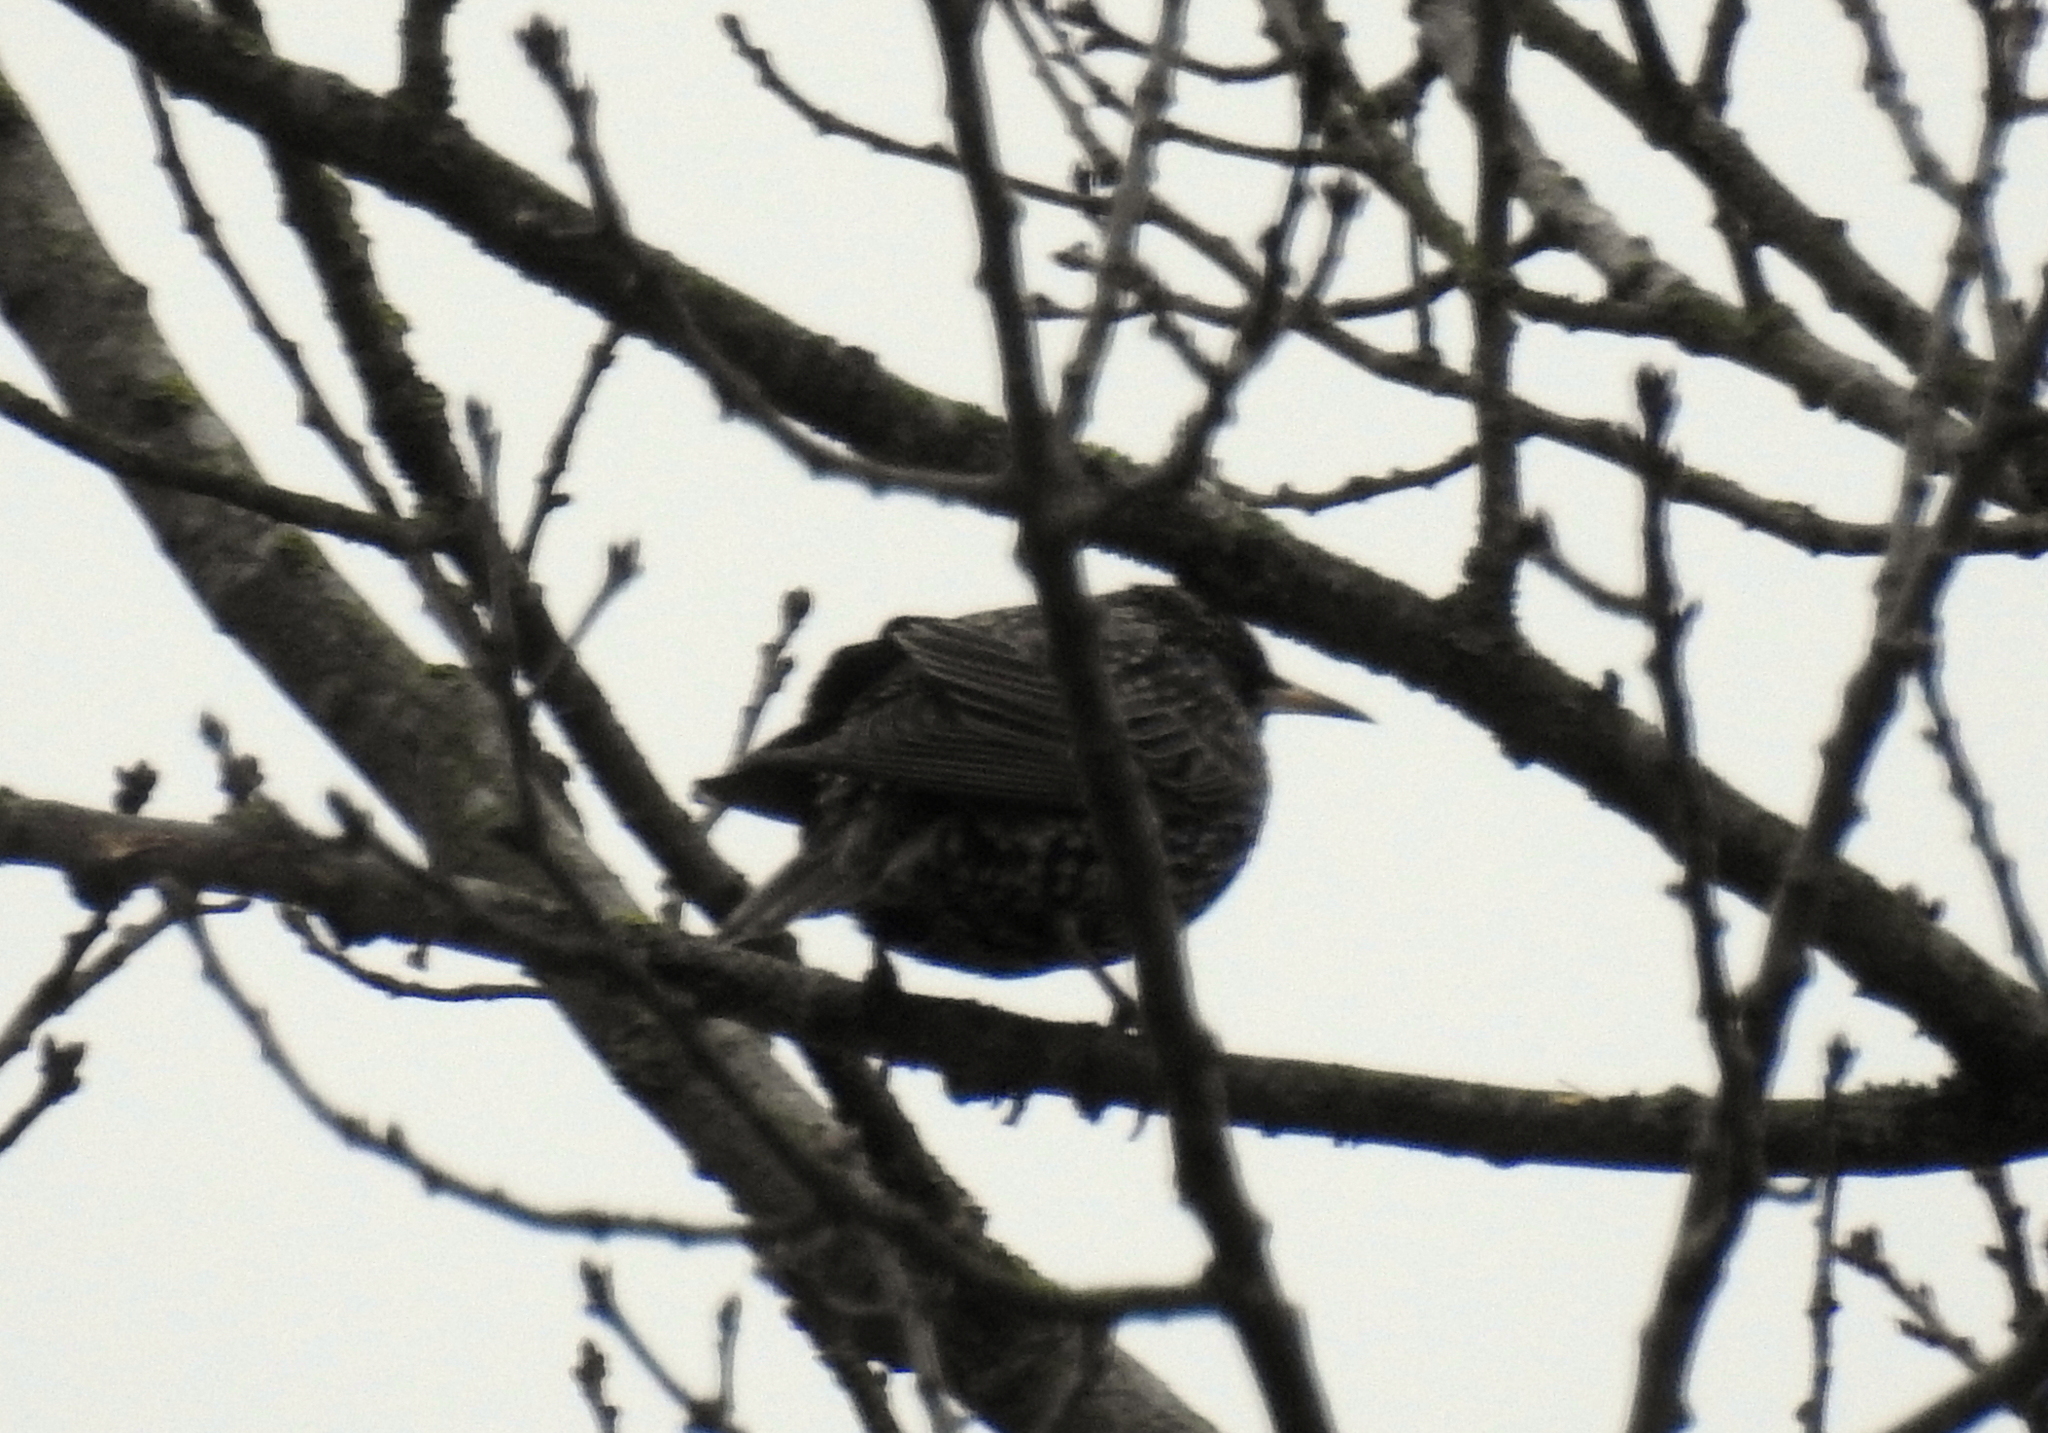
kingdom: Animalia
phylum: Chordata
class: Aves
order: Passeriformes
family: Sturnidae
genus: Sturnus
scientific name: Sturnus vulgaris
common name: Common starling
